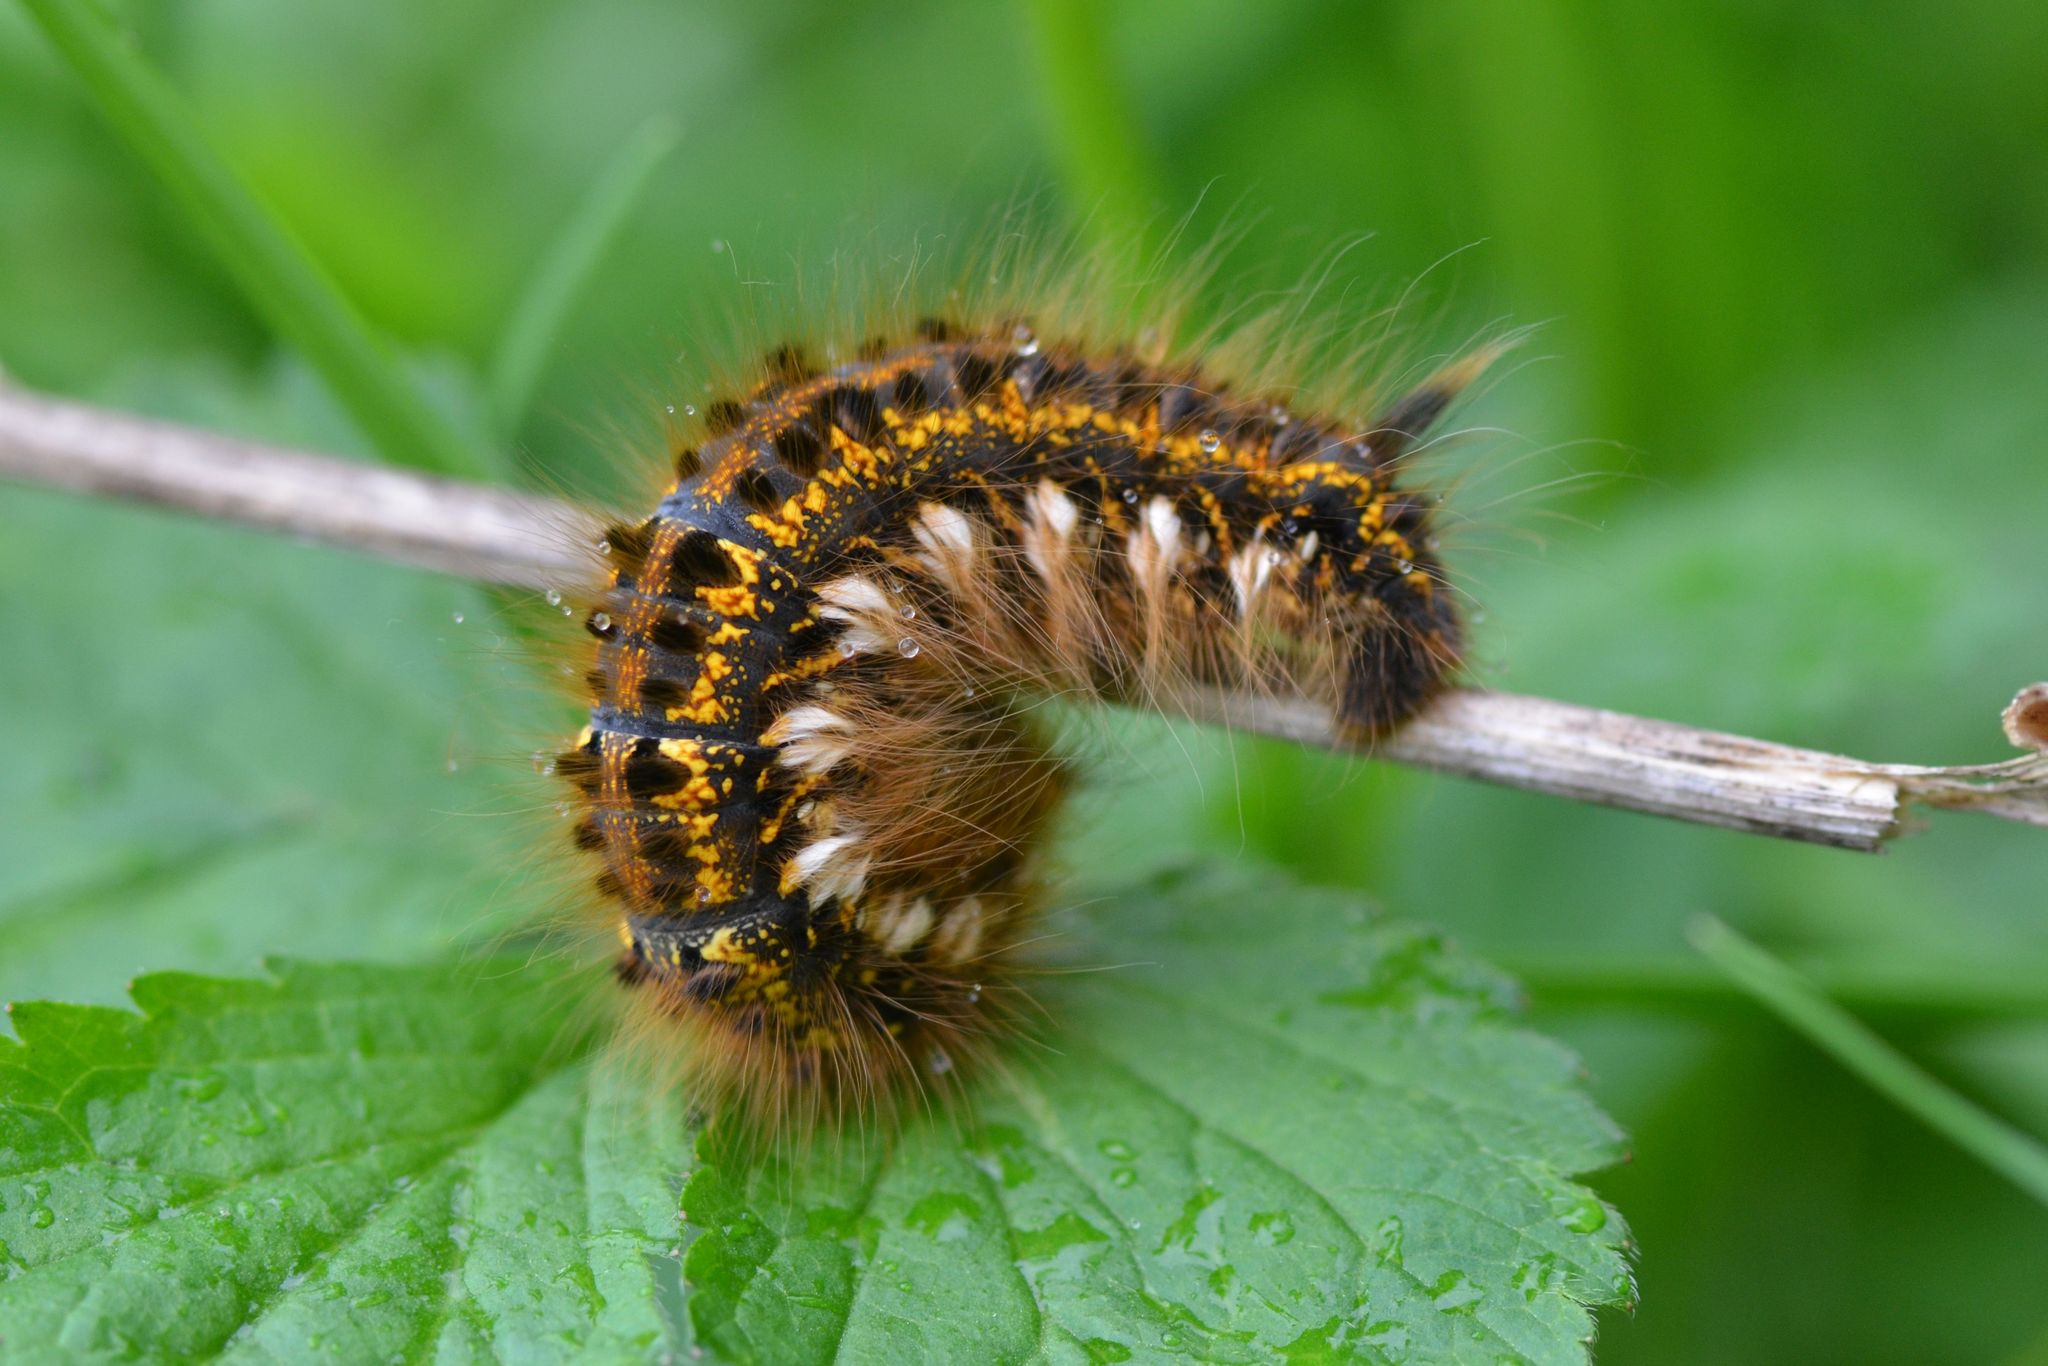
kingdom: Animalia
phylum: Arthropoda
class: Insecta
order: Lepidoptera
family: Lasiocampidae
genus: Euthrix
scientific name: Euthrix potatoria
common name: Drinker
